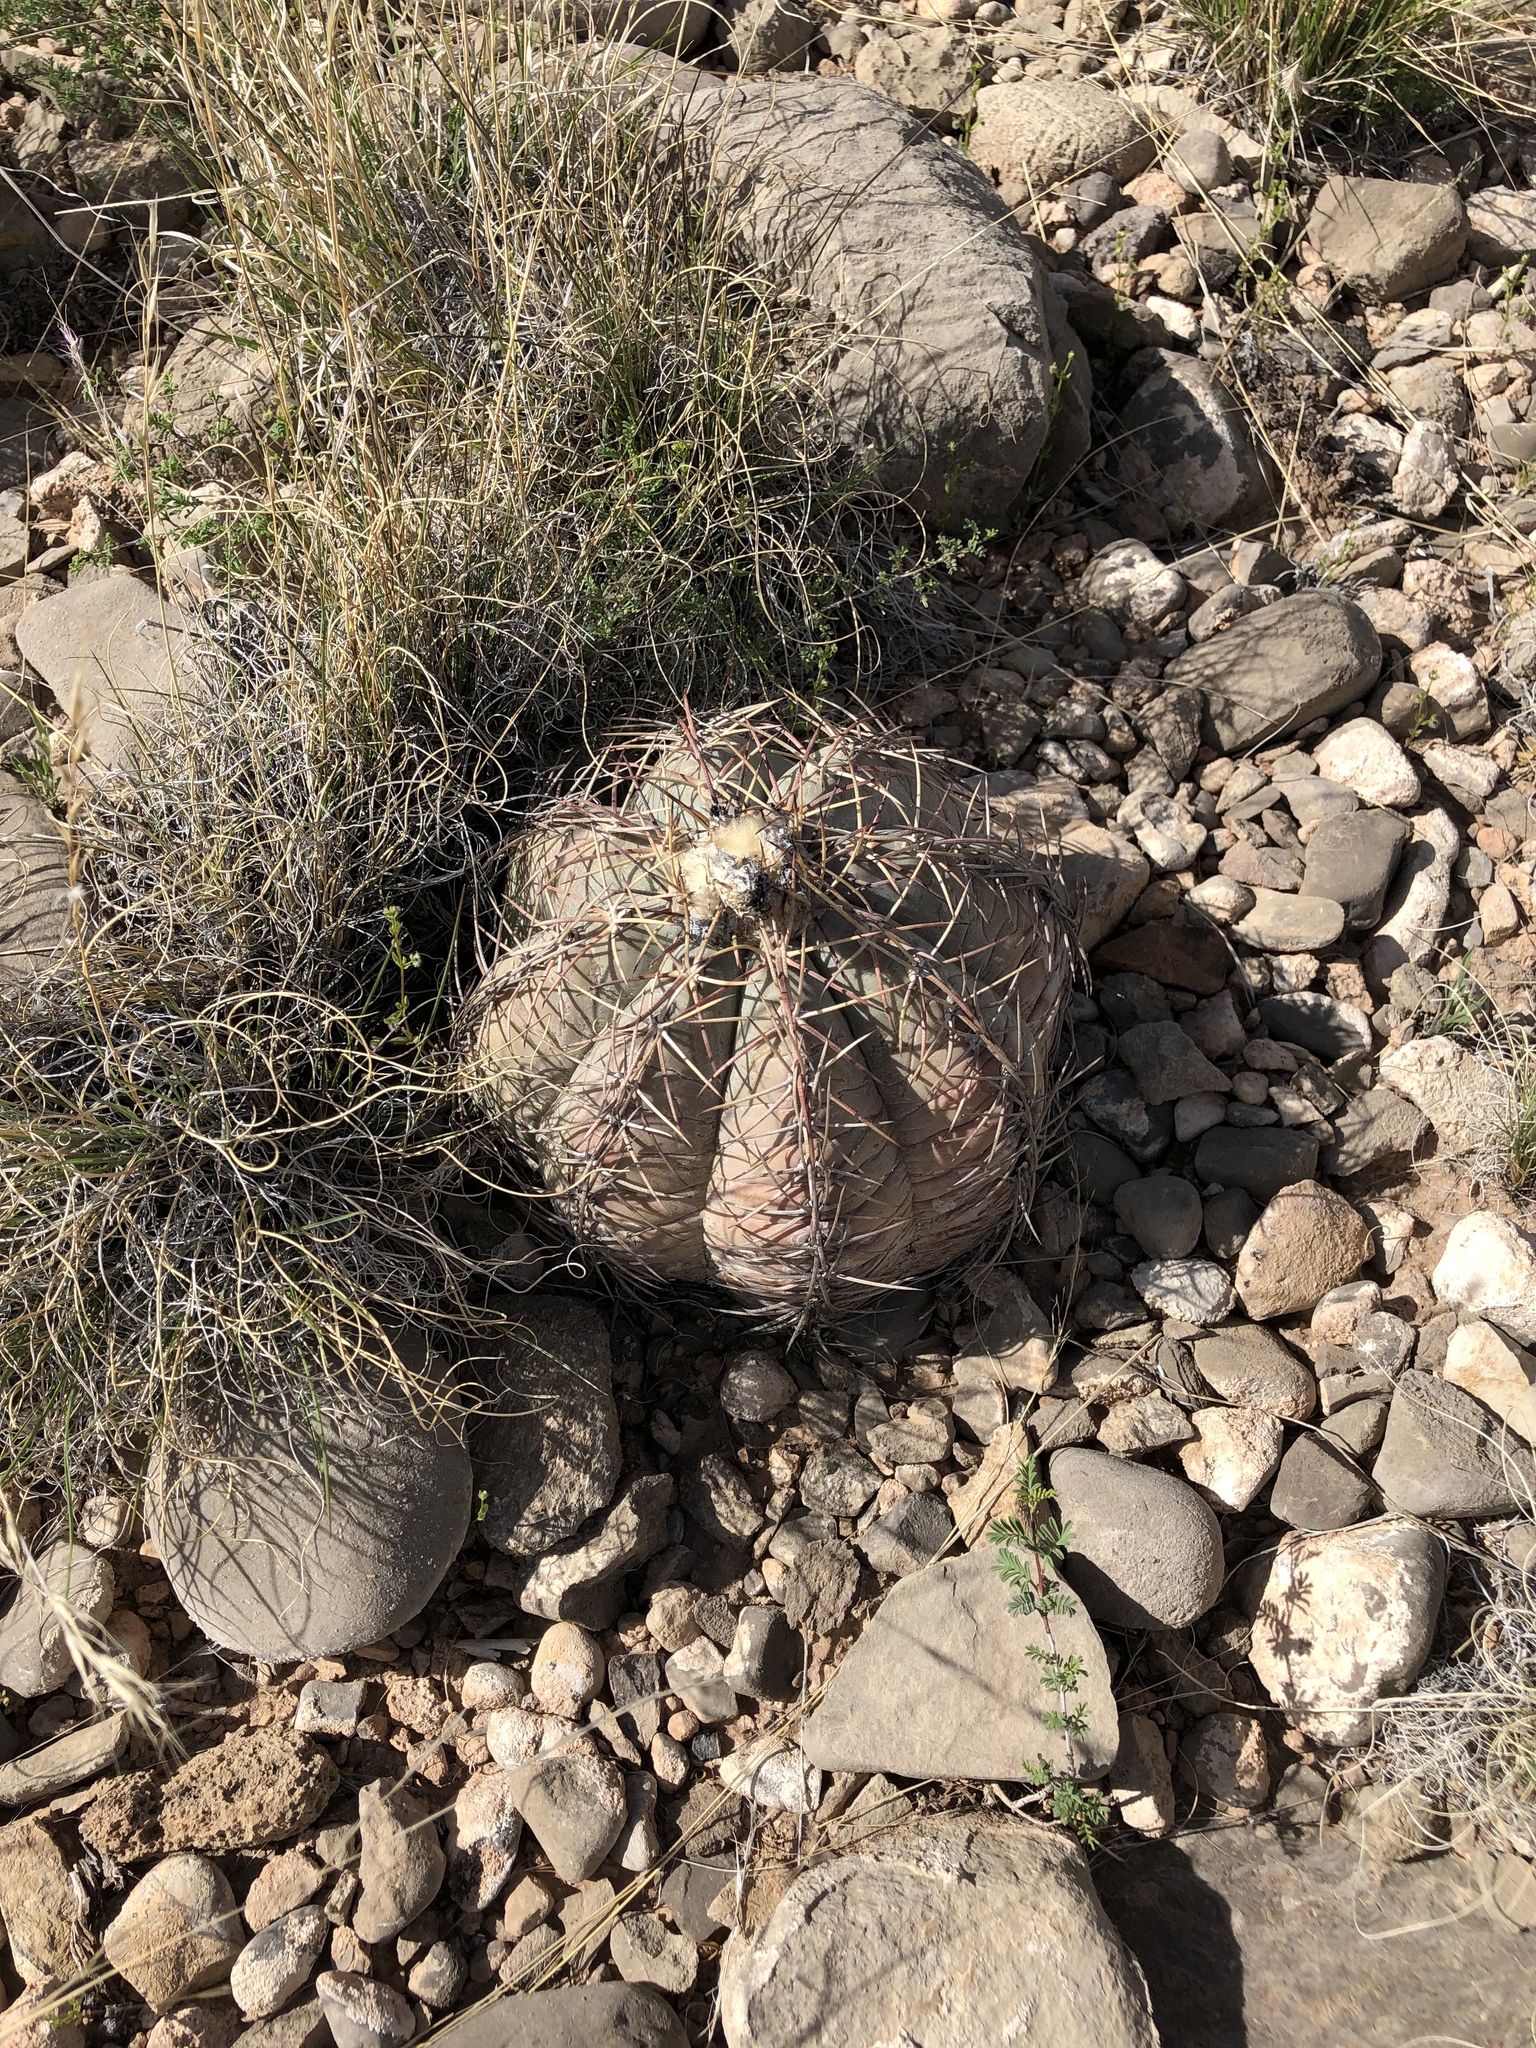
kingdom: Plantae
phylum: Tracheophyta
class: Magnoliopsida
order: Caryophyllales
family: Cactaceae
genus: Echinocactus
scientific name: Echinocactus horizonthalonius
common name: Devilshead
